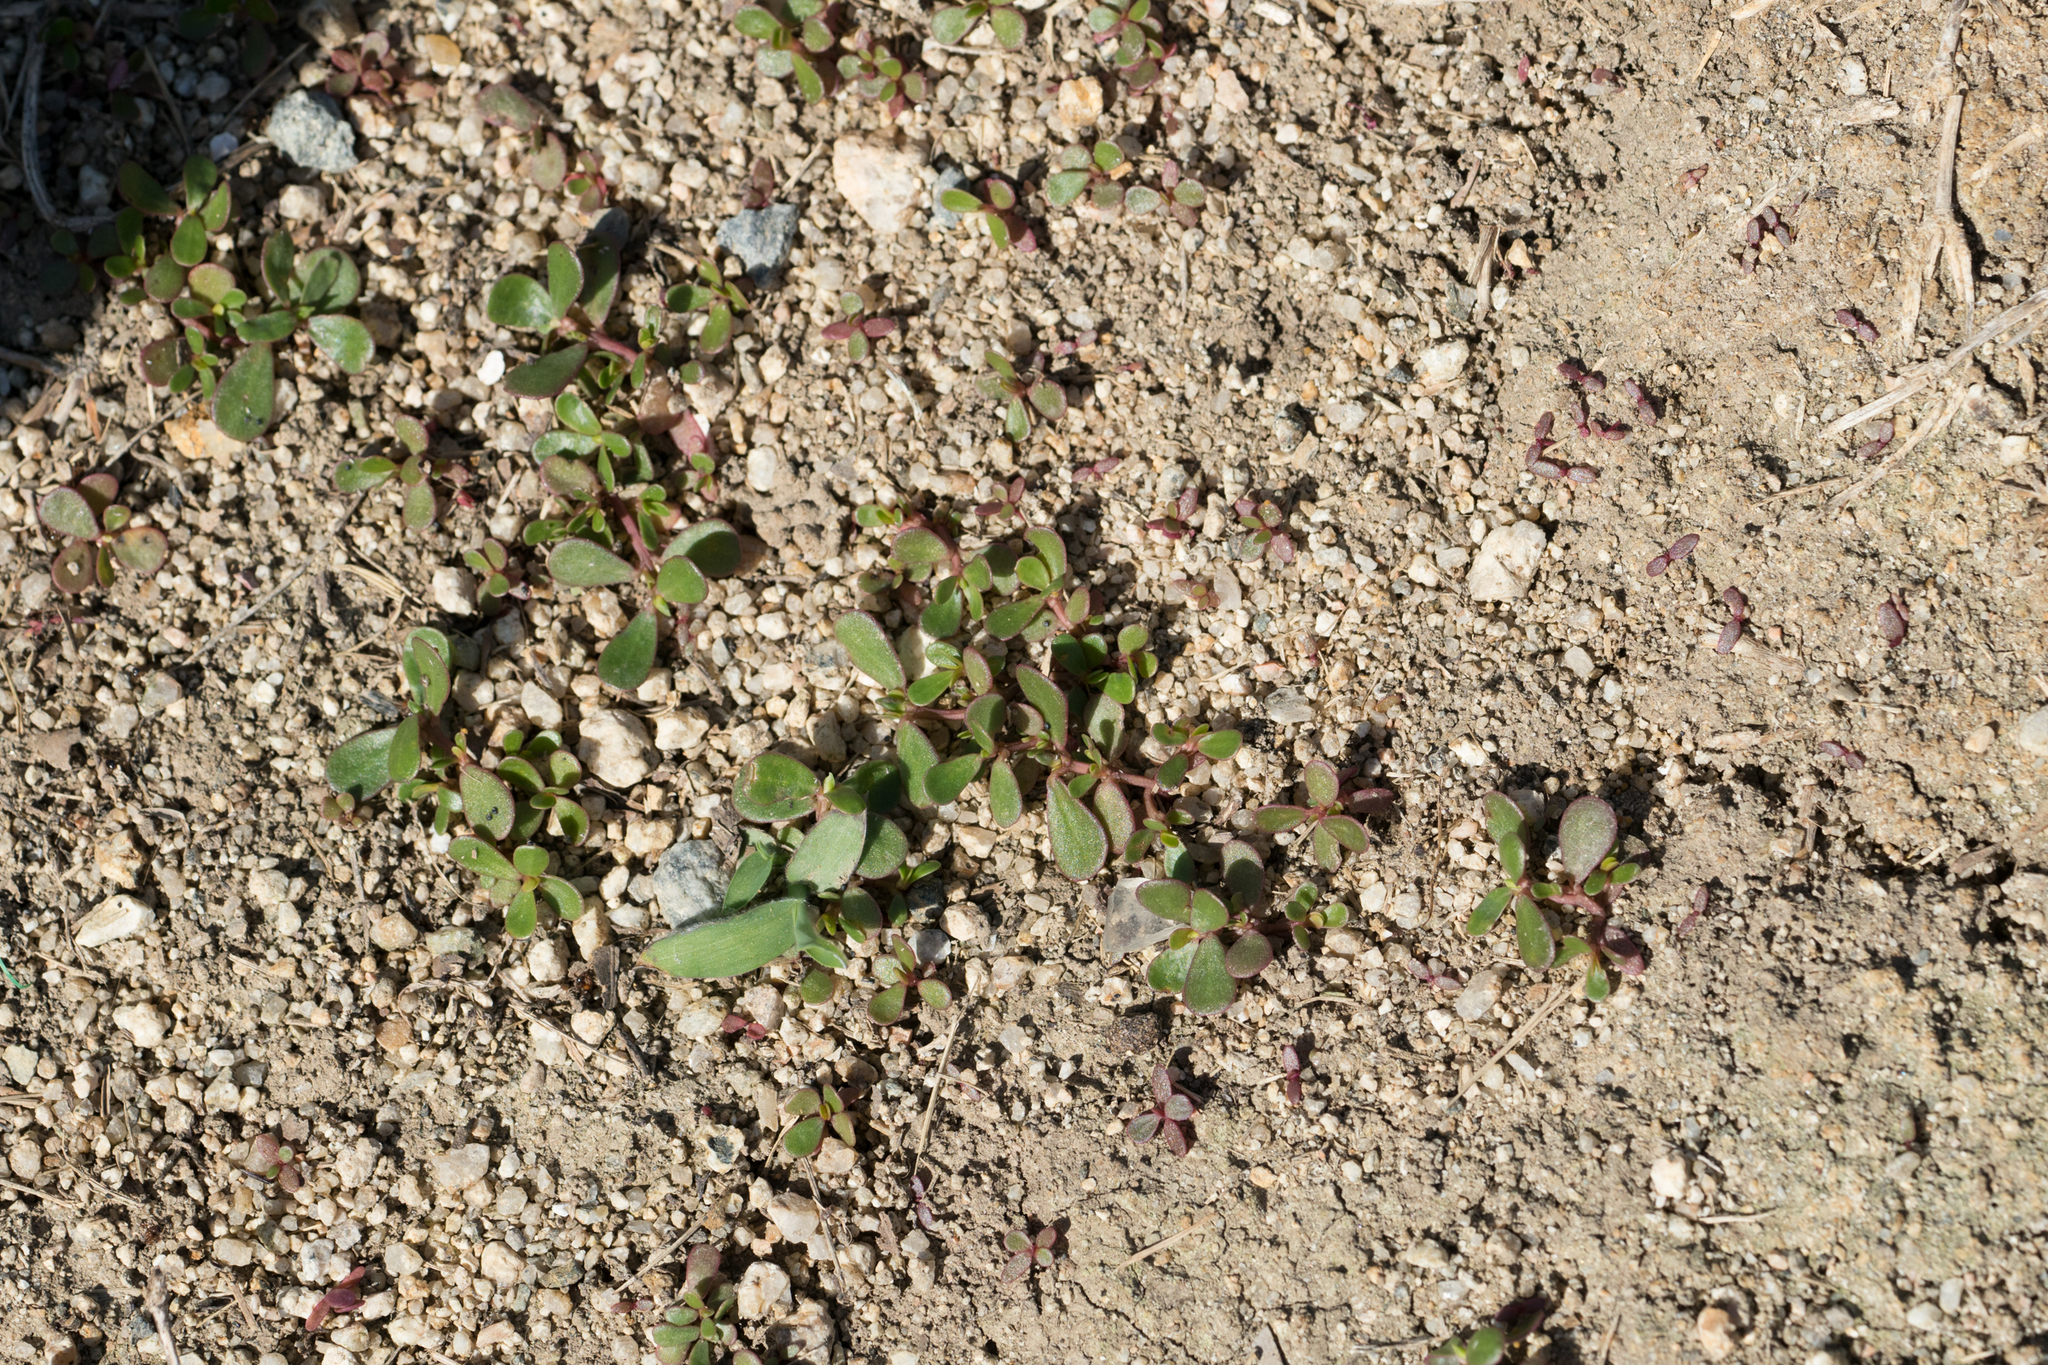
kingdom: Plantae
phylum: Tracheophyta
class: Magnoliopsida
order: Caryophyllales
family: Portulacaceae
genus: Portulaca
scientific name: Portulaca oleracea
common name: Common purslane
